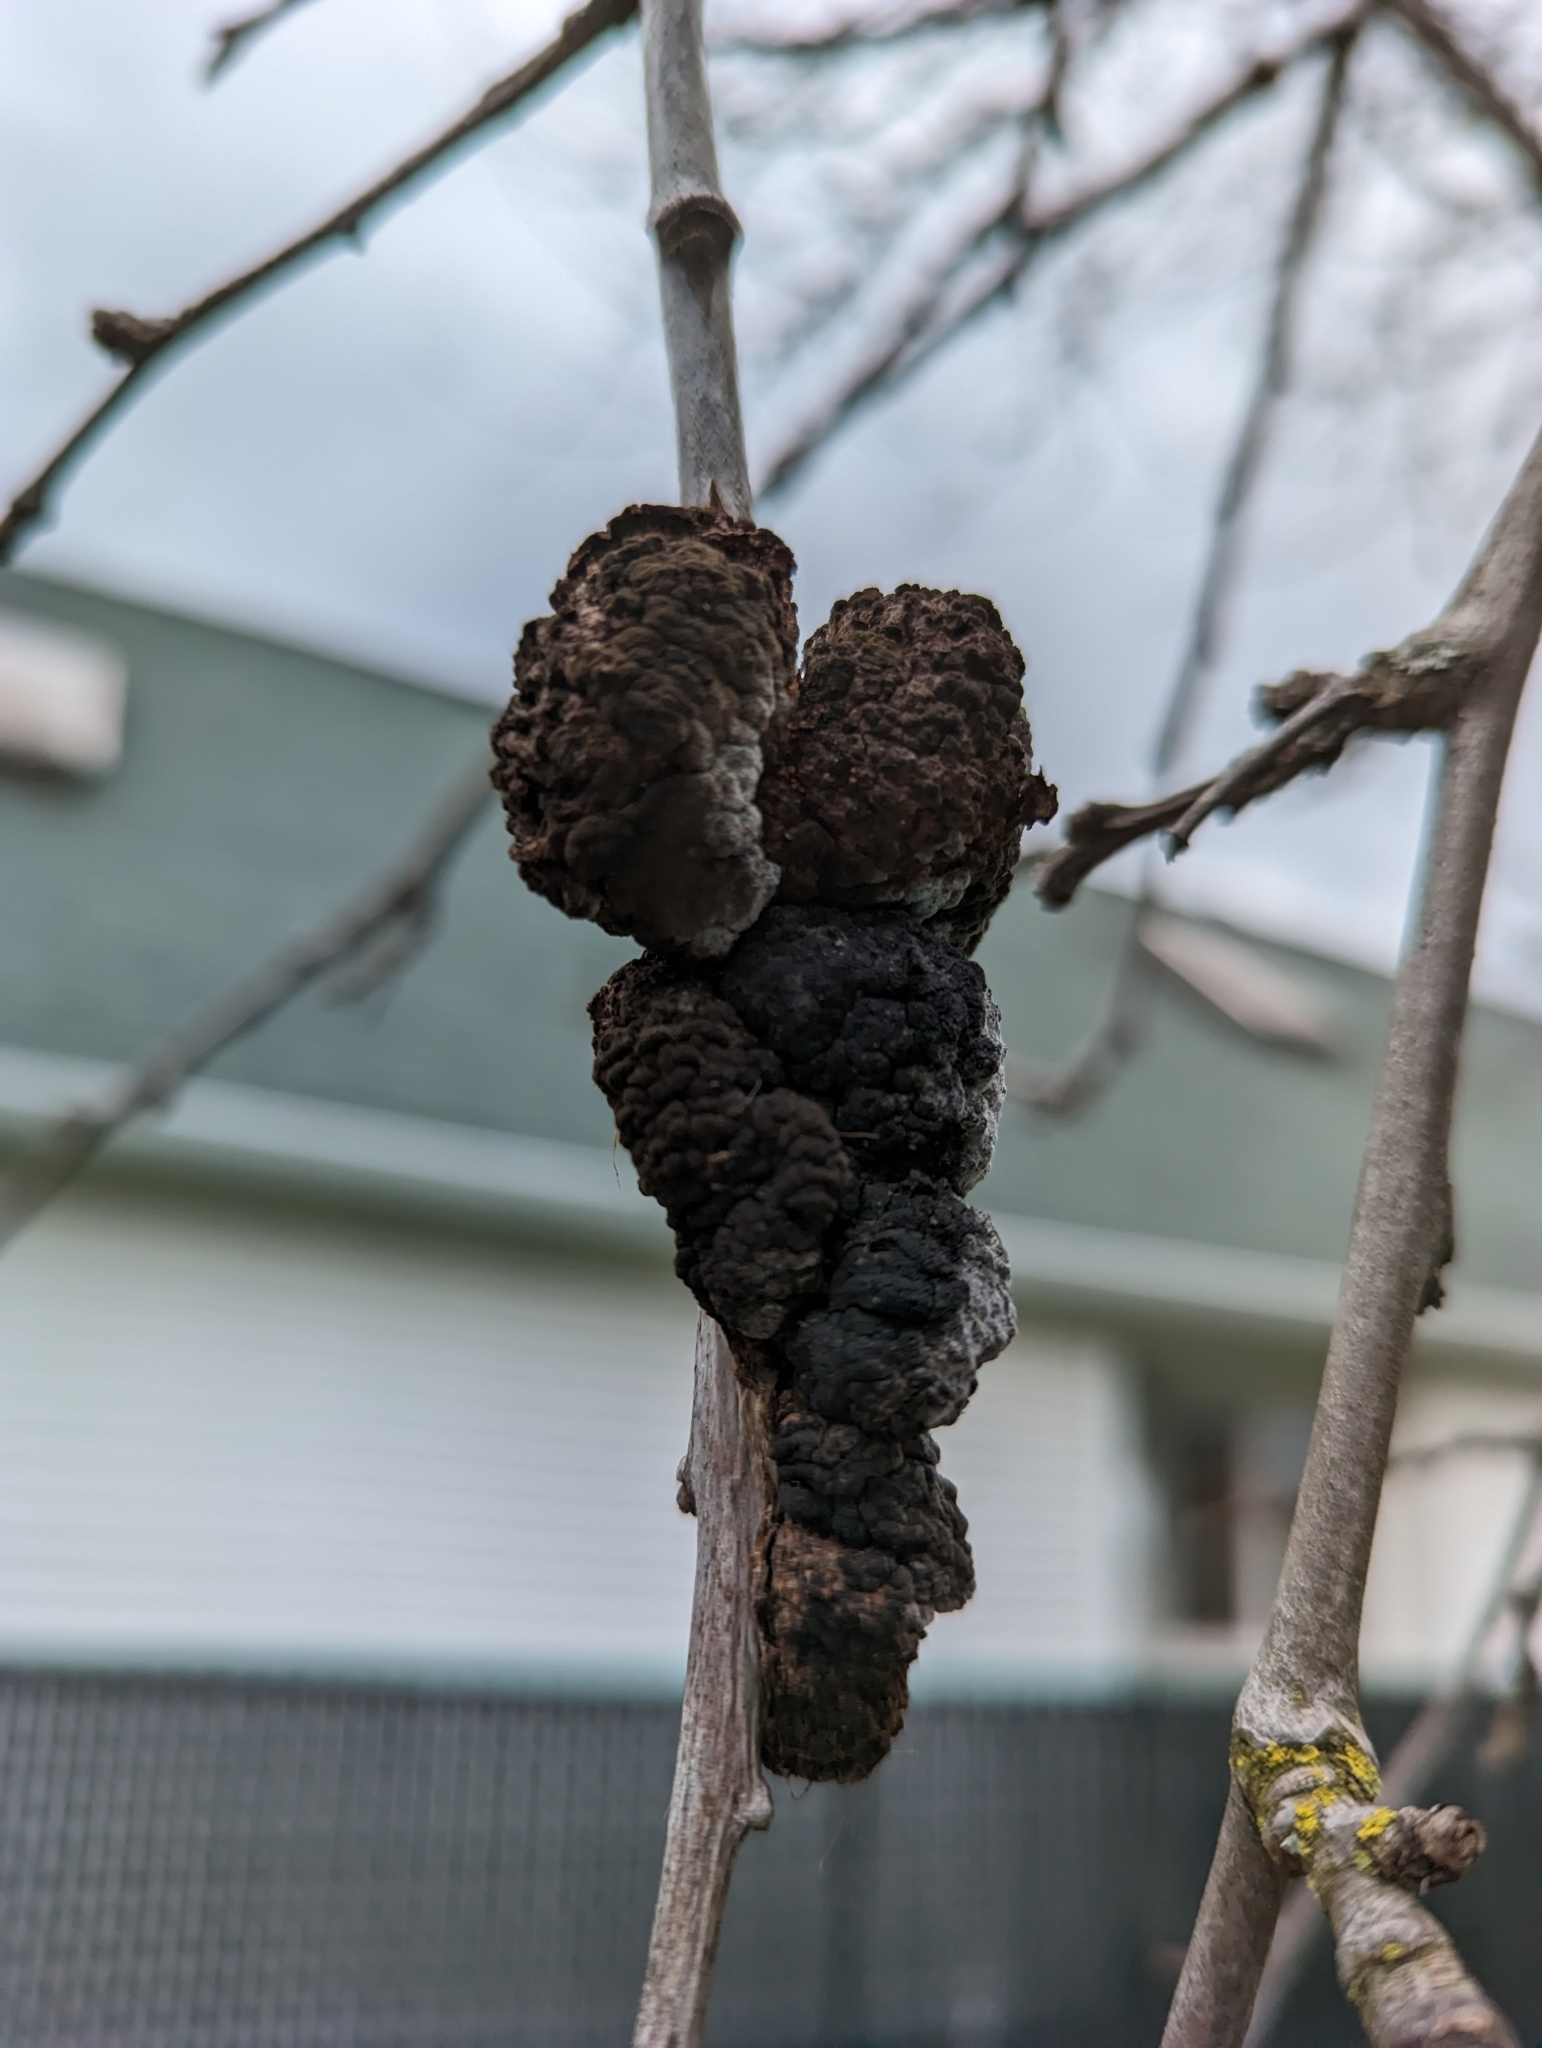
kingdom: Fungi
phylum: Ascomycota
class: Dothideomycetes
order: Venturiales
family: Venturiaceae
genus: Apiosporina
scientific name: Apiosporina morbosa
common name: Black knot
